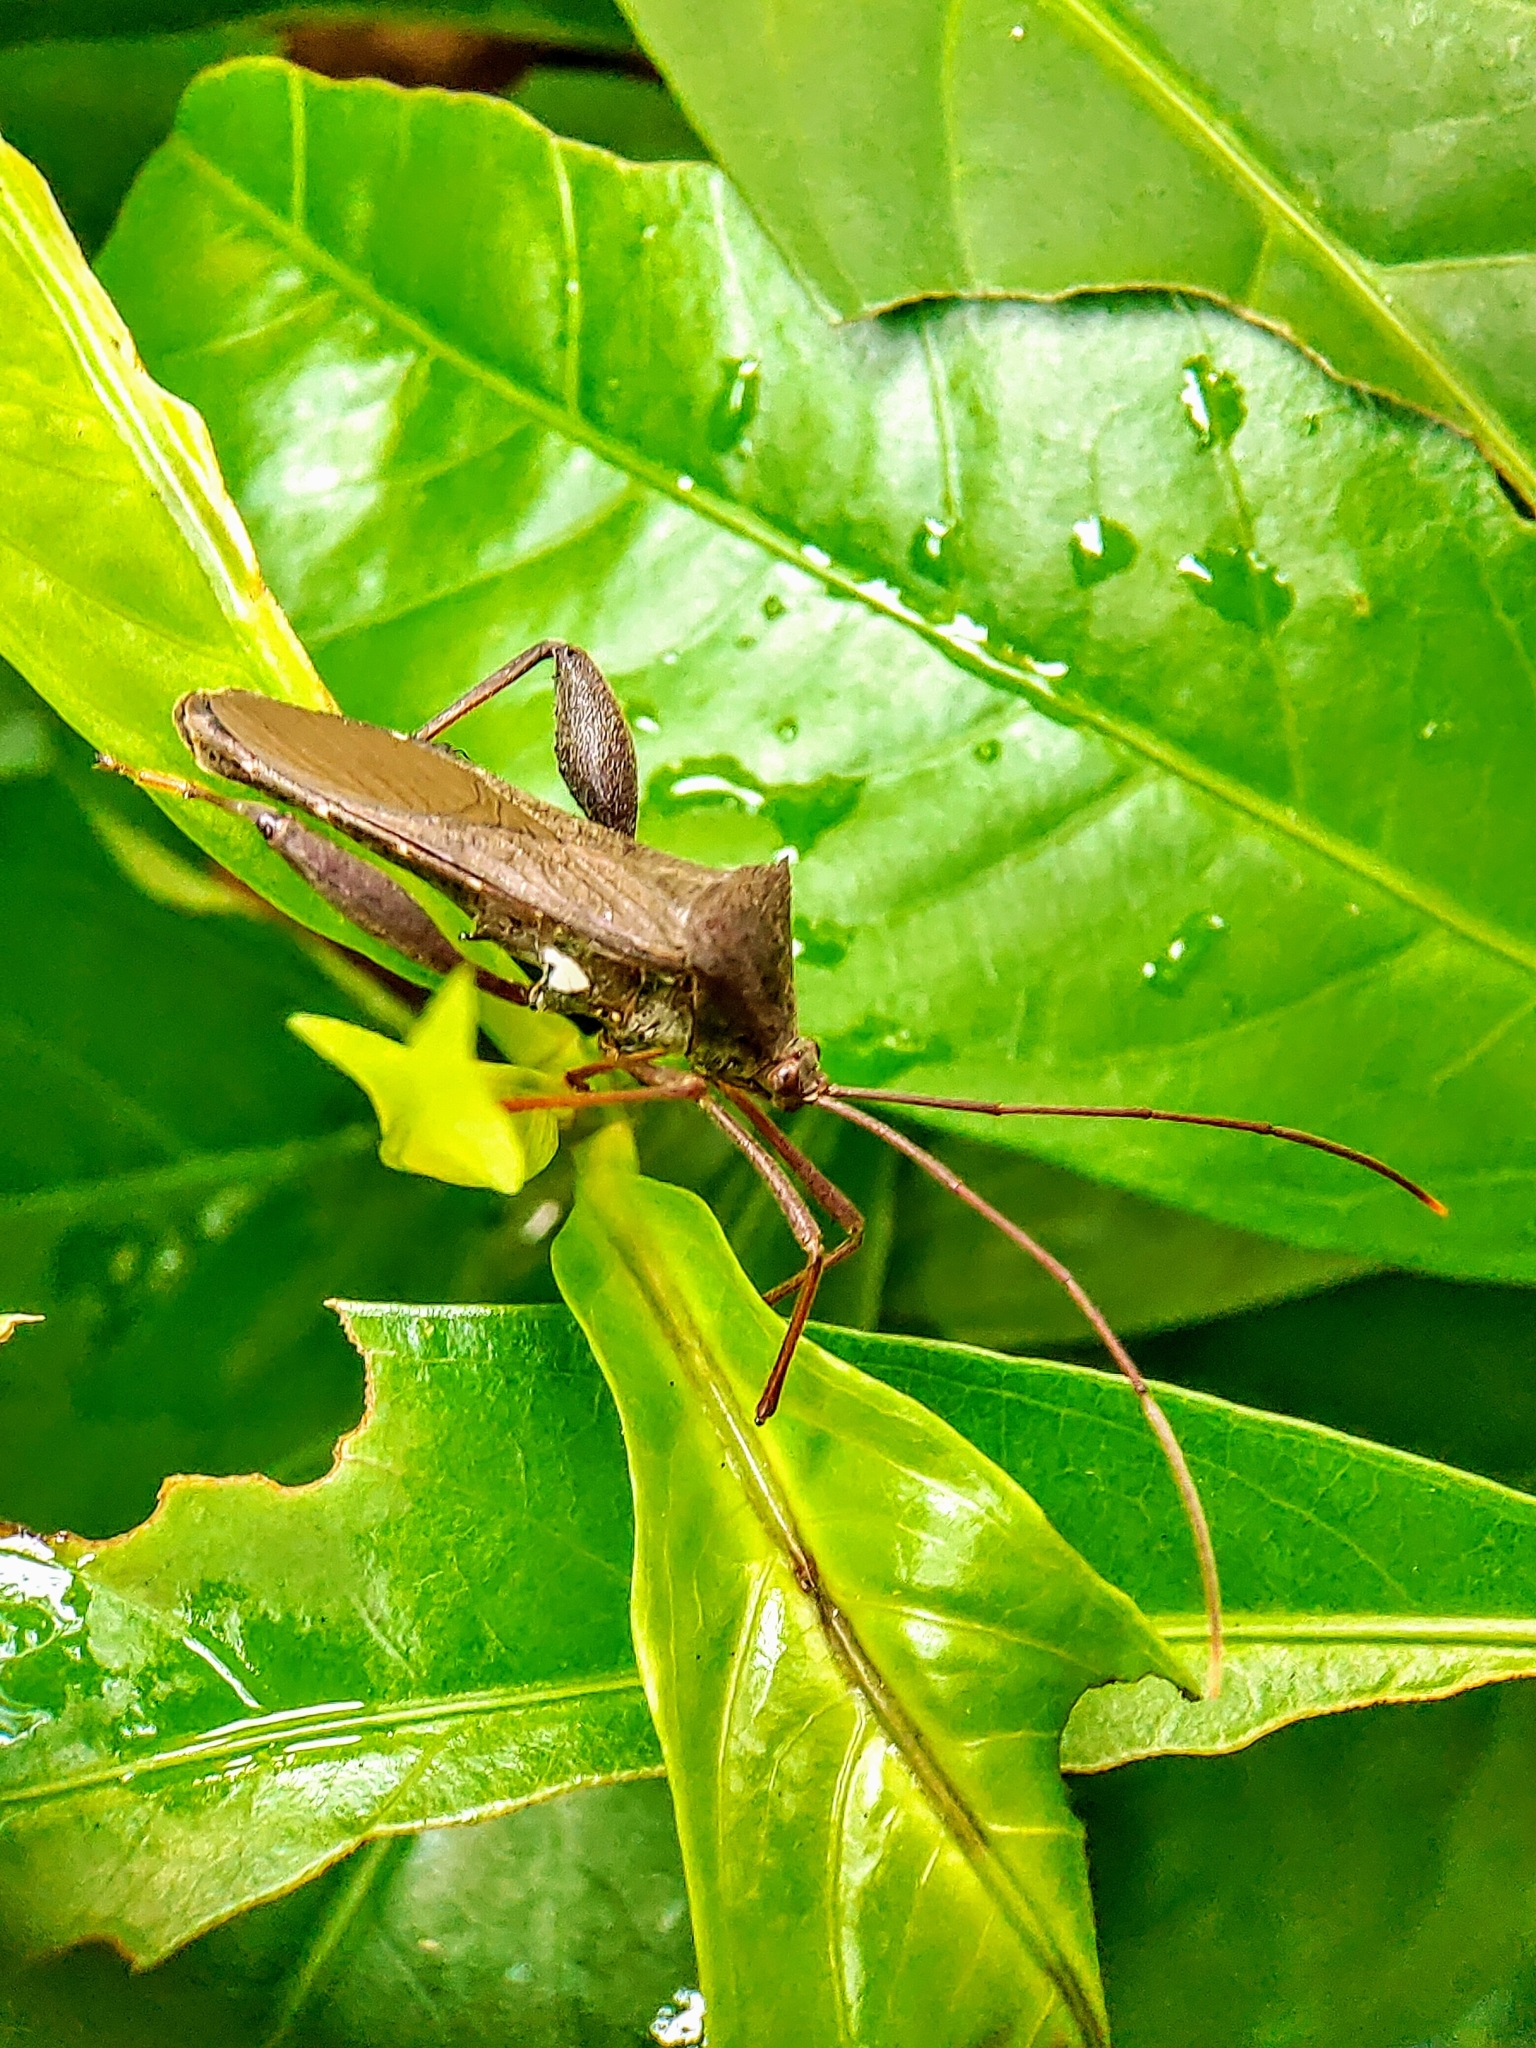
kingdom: Animalia
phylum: Arthropoda
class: Insecta
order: Hemiptera
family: Coreidae
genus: Mictis
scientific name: Mictis longicornis
